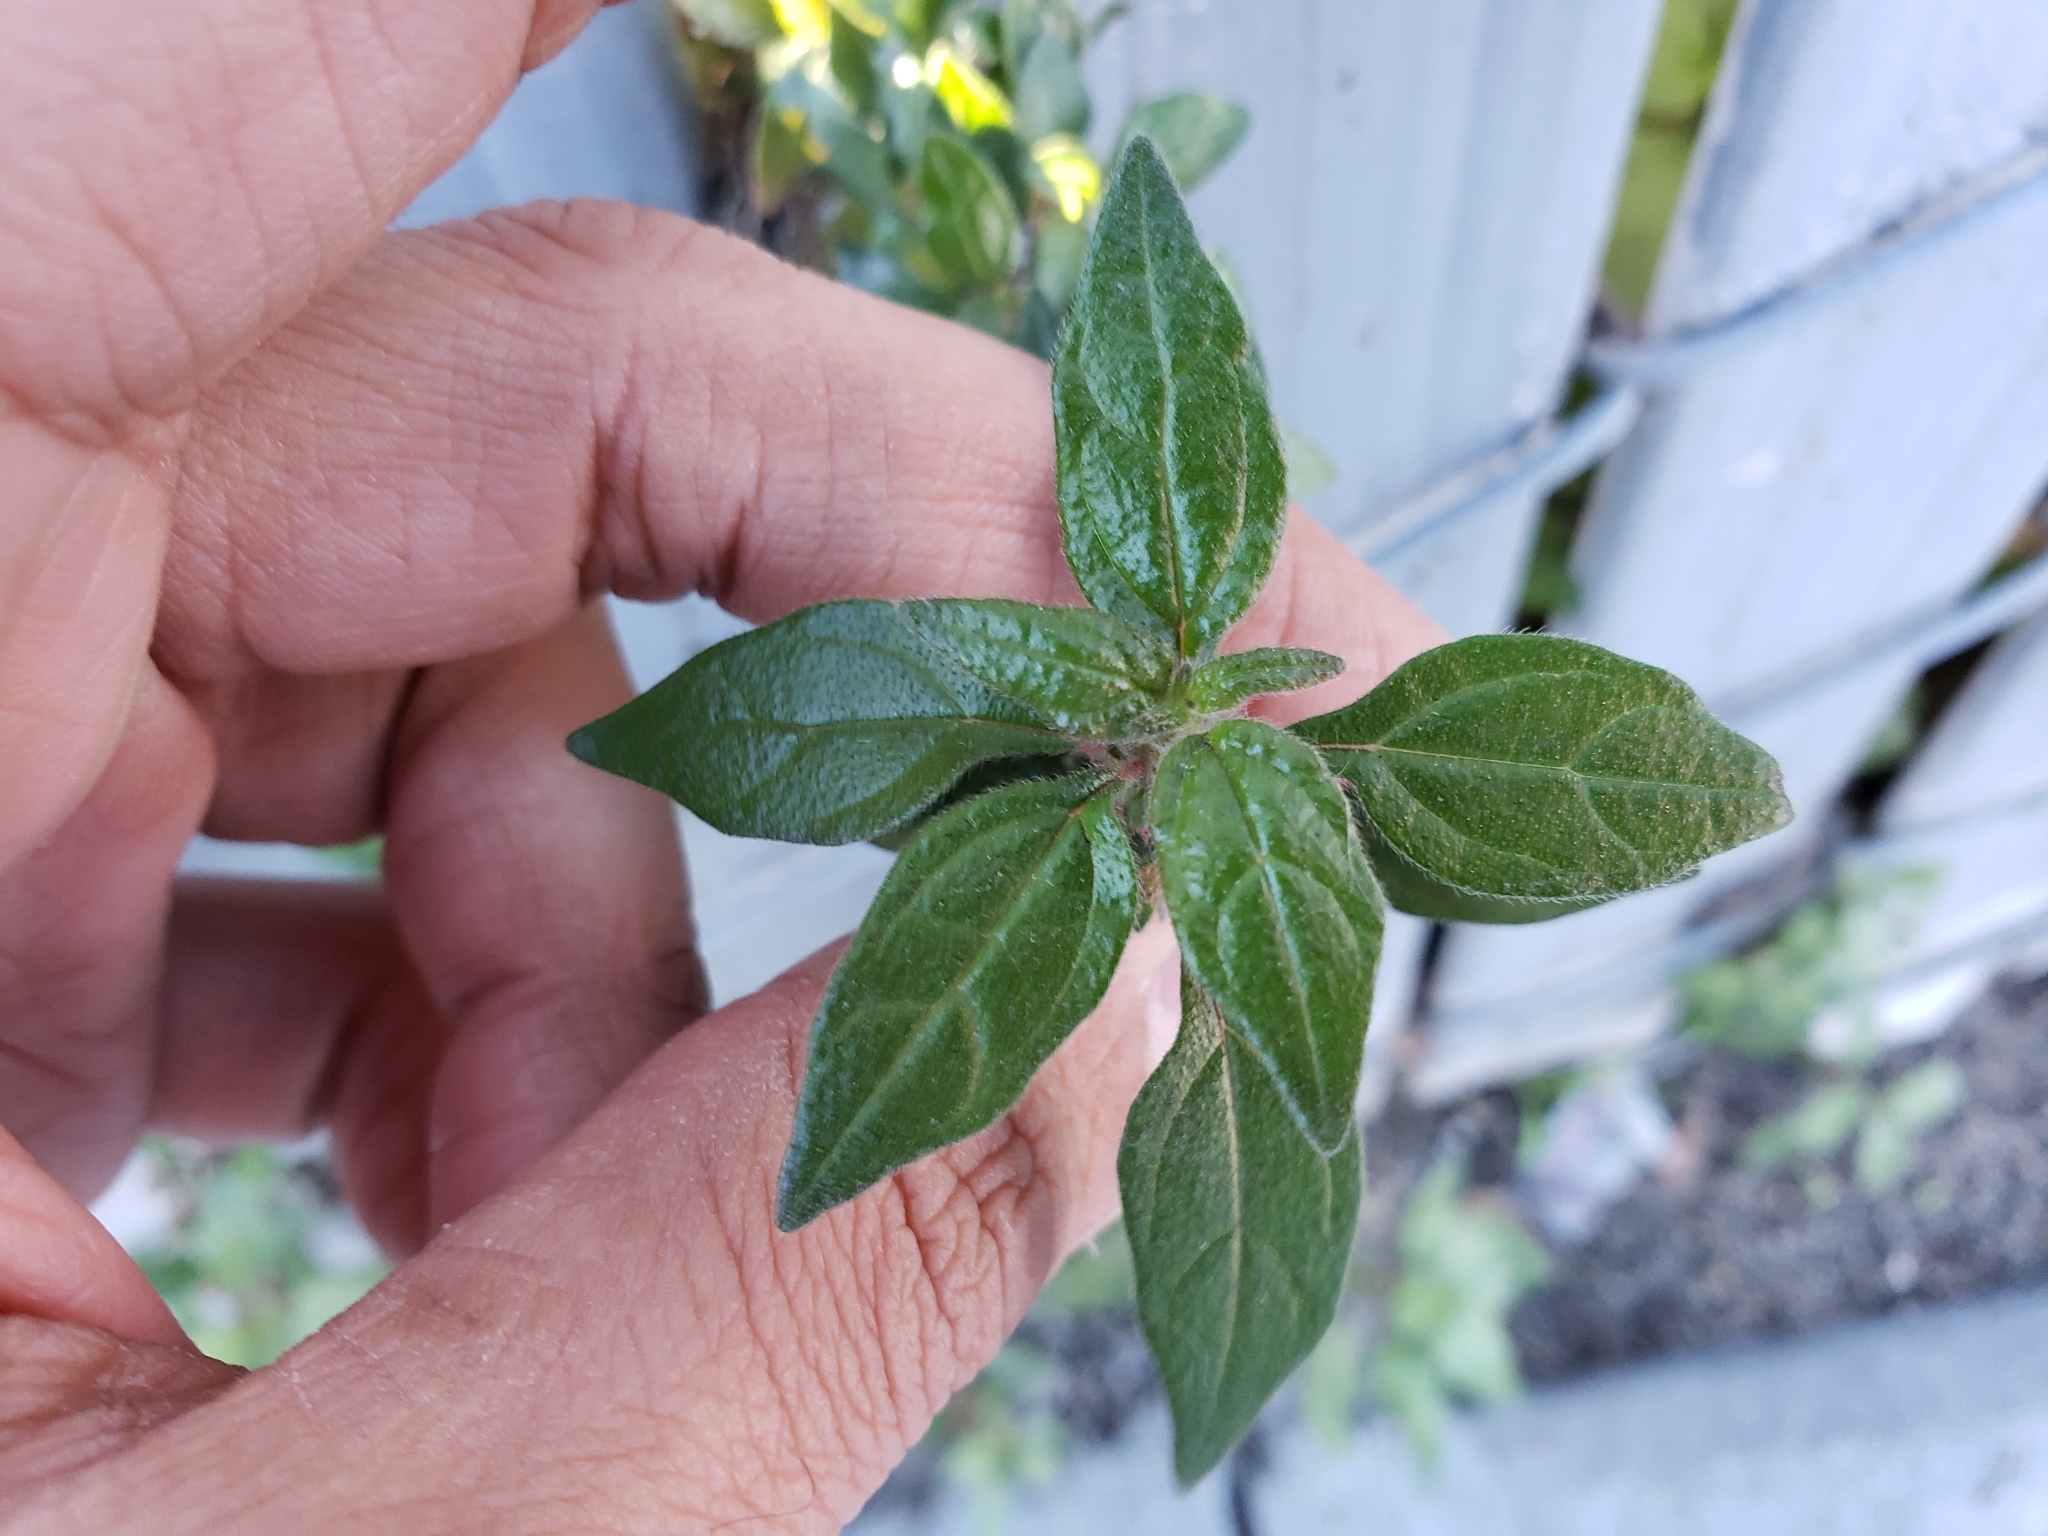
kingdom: Plantae
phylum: Tracheophyta
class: Magnoliopsida
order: Rosales
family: Urticaceae
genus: Parietaria
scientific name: Parietaria judaica
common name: Pellitory-of-the-wall
